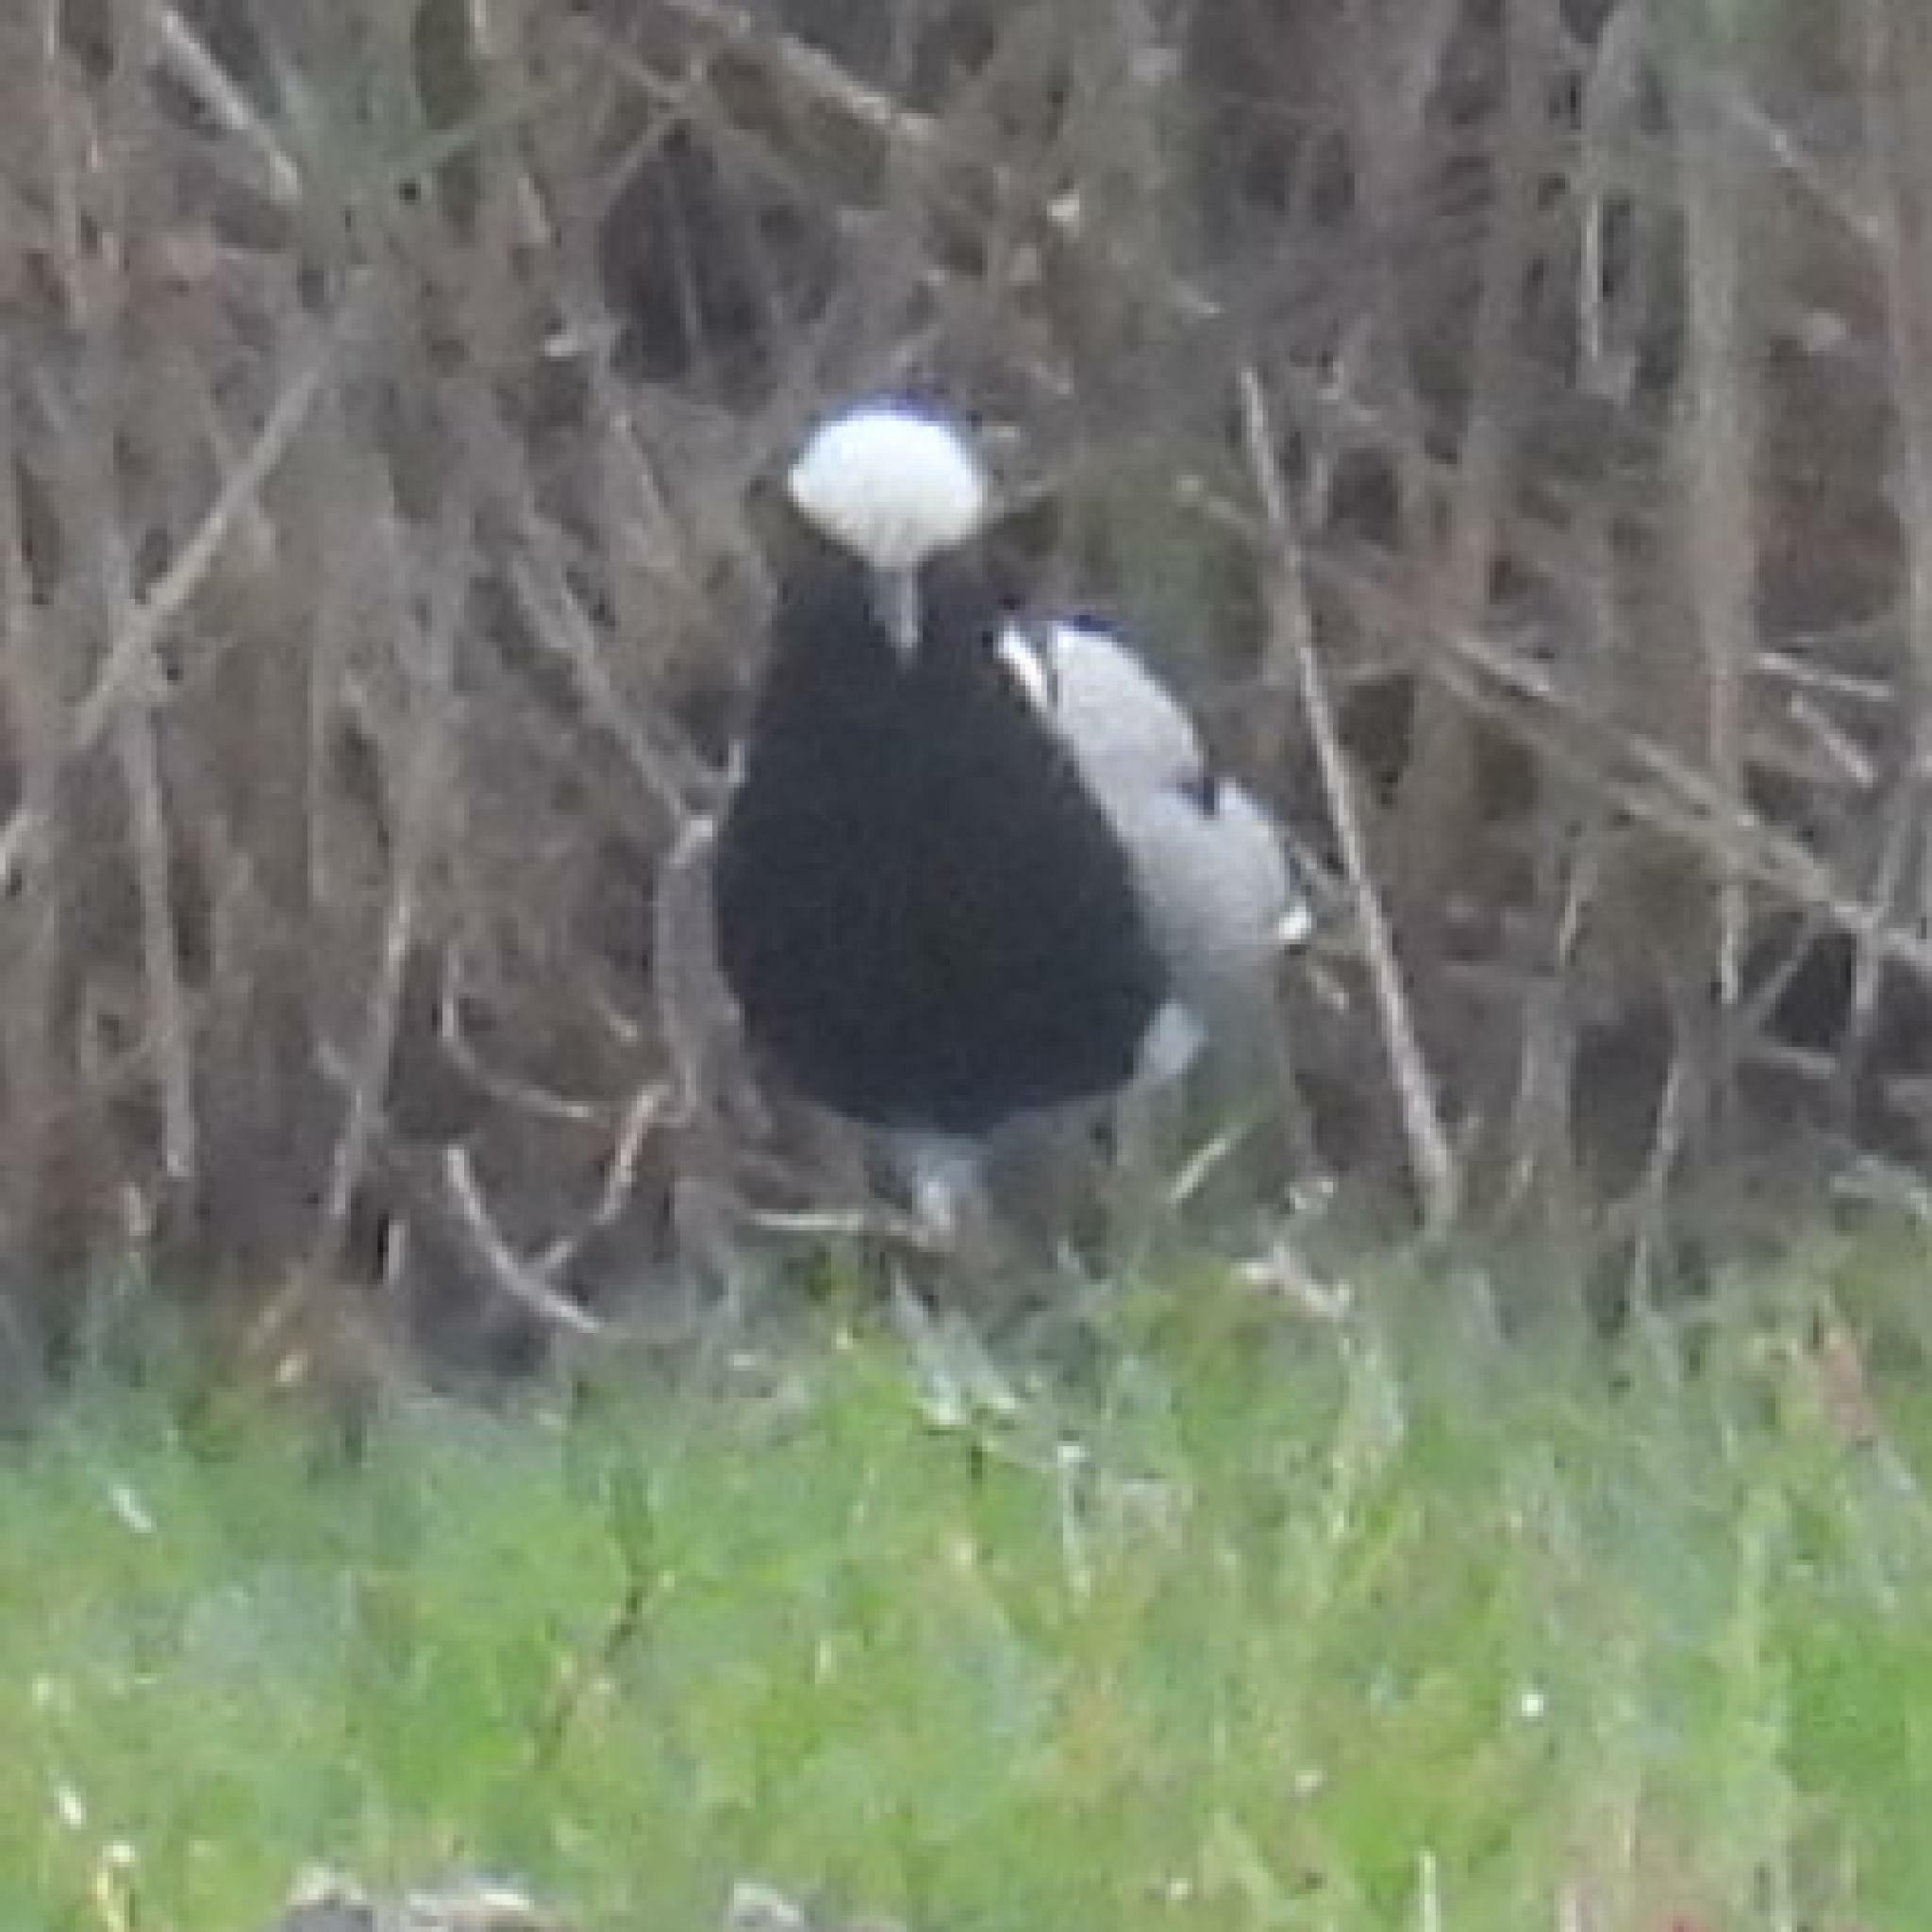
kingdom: Animalia
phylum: Chordata
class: Aves
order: Charadriiformes
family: Charadriidae
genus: Vanellus
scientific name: Vanellus armatus
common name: Blacksmith lapwing
